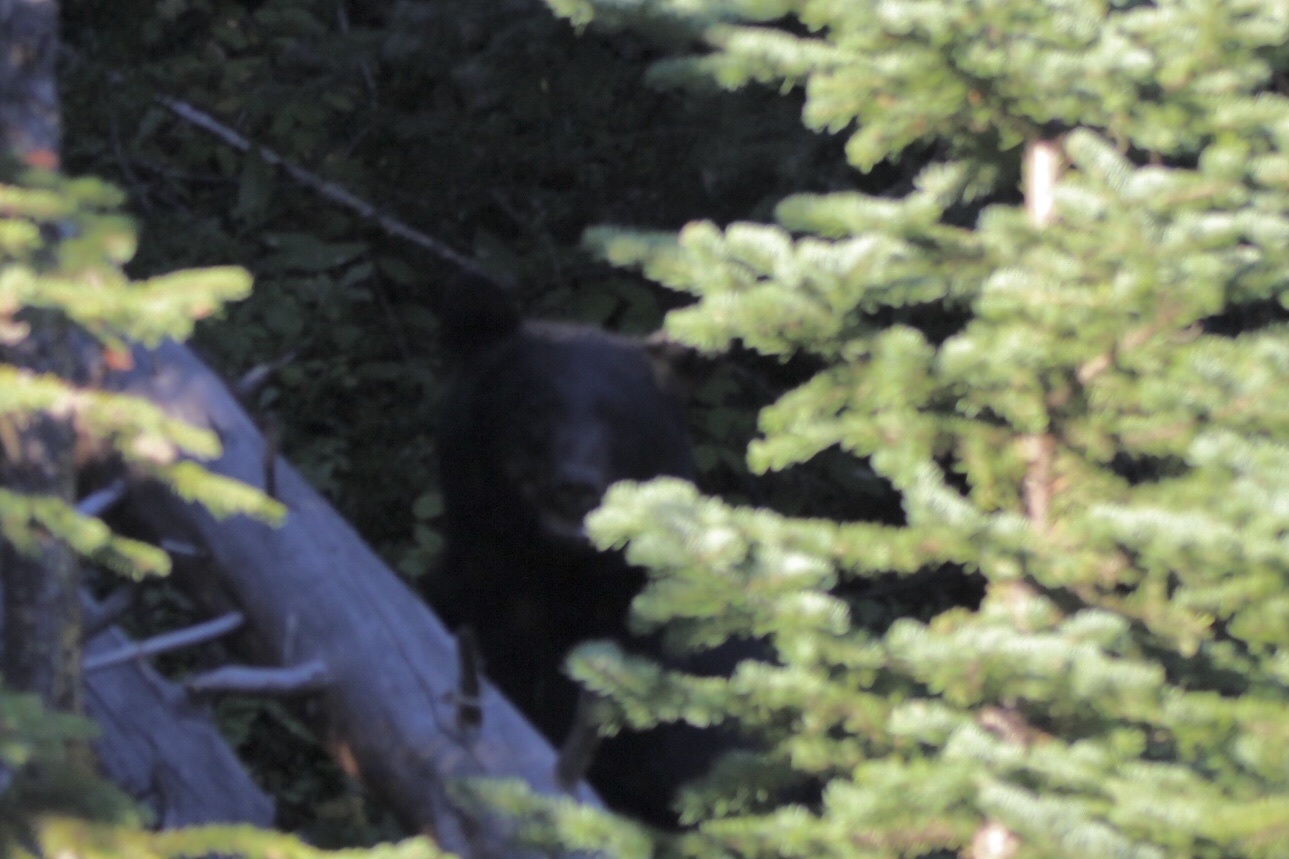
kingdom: Animalia
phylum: Chordata
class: Mammalia
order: Carnivora
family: Ursidae
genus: Ursus
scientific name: Ursus americanus
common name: American black bear
